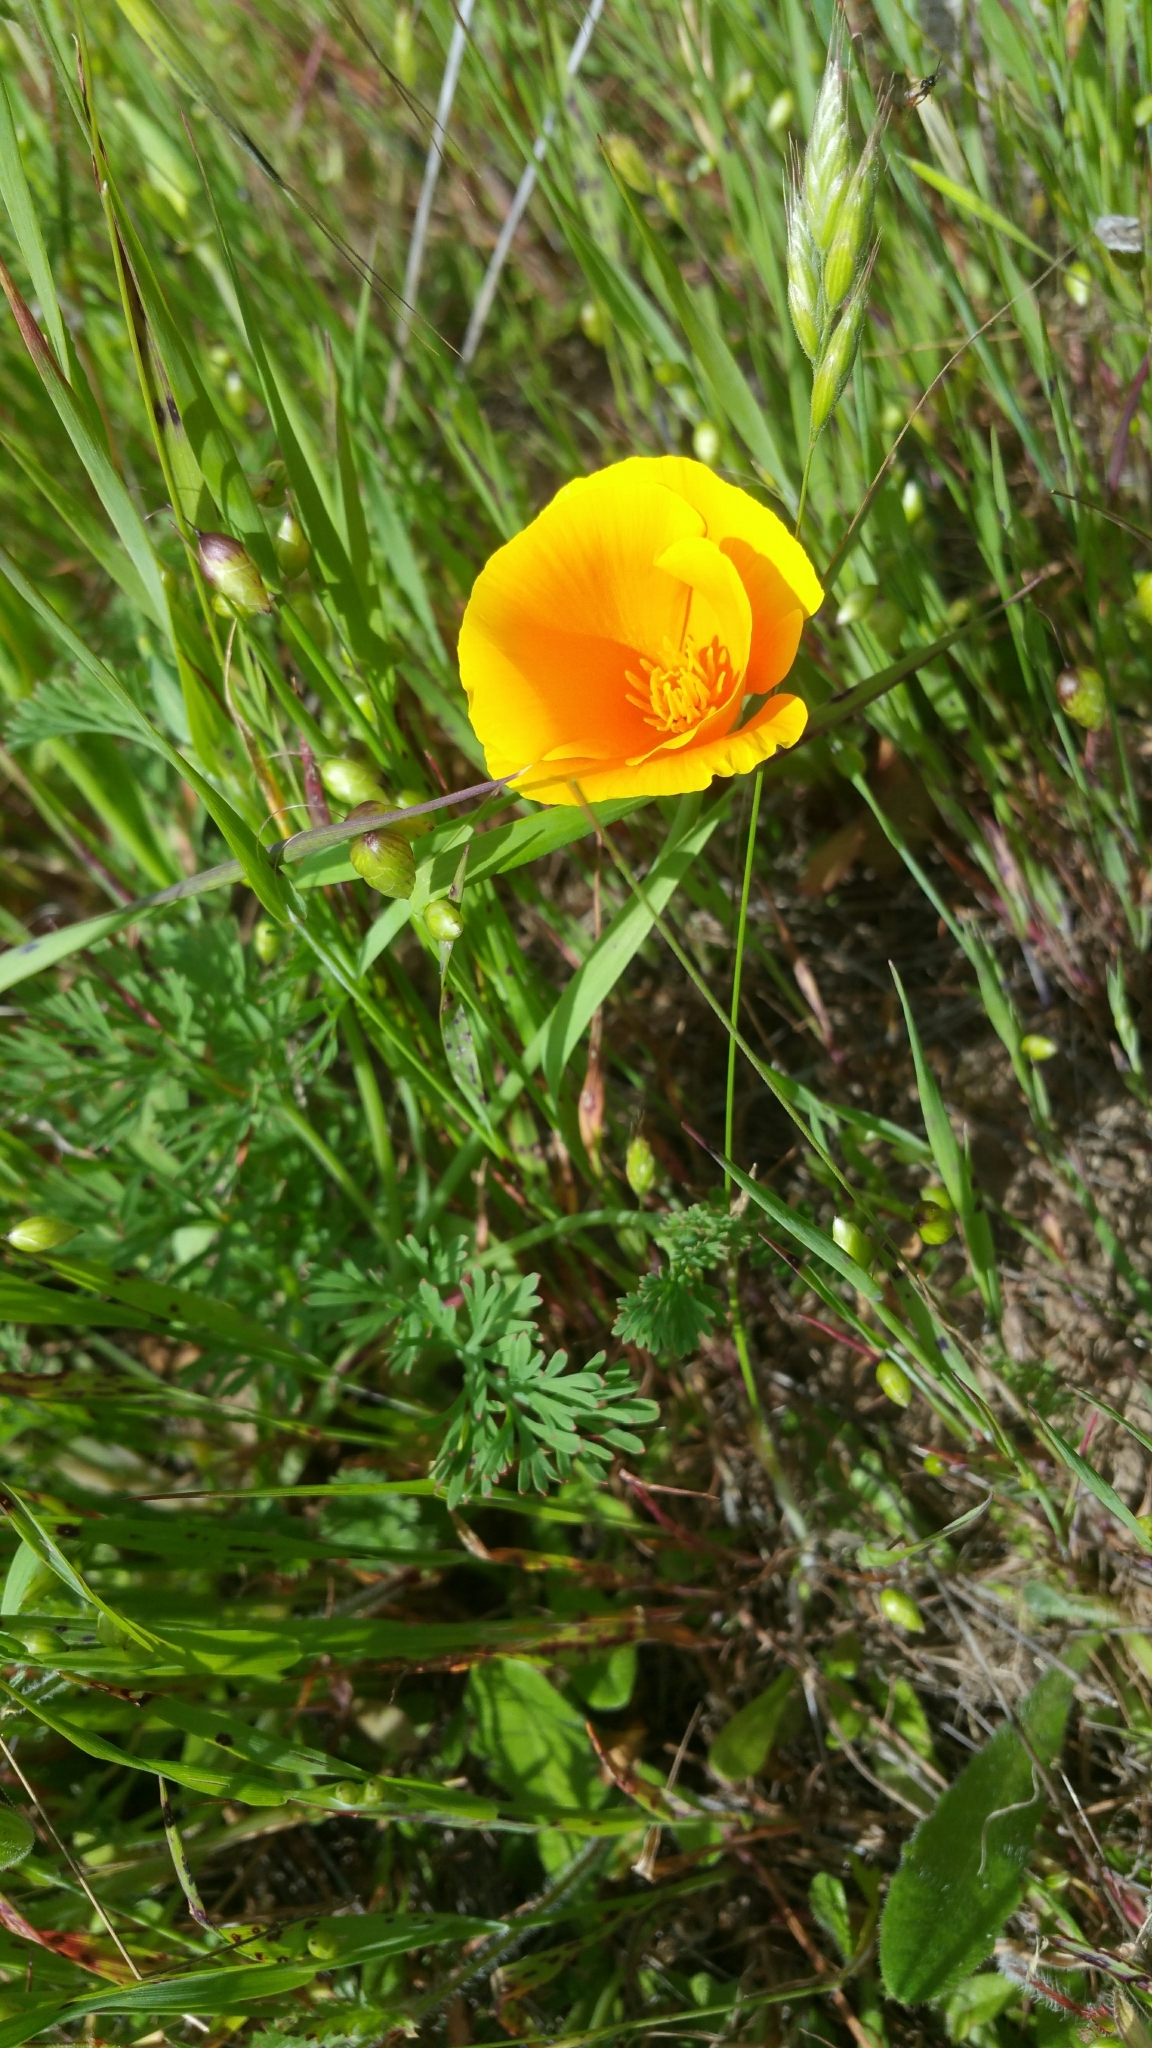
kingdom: Plantae
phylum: Tracheophyta
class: Magnoliopsida
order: Ranunculales
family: Papaveraceae
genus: Eschscholzia
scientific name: Eschscholzia californica
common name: California poppy
